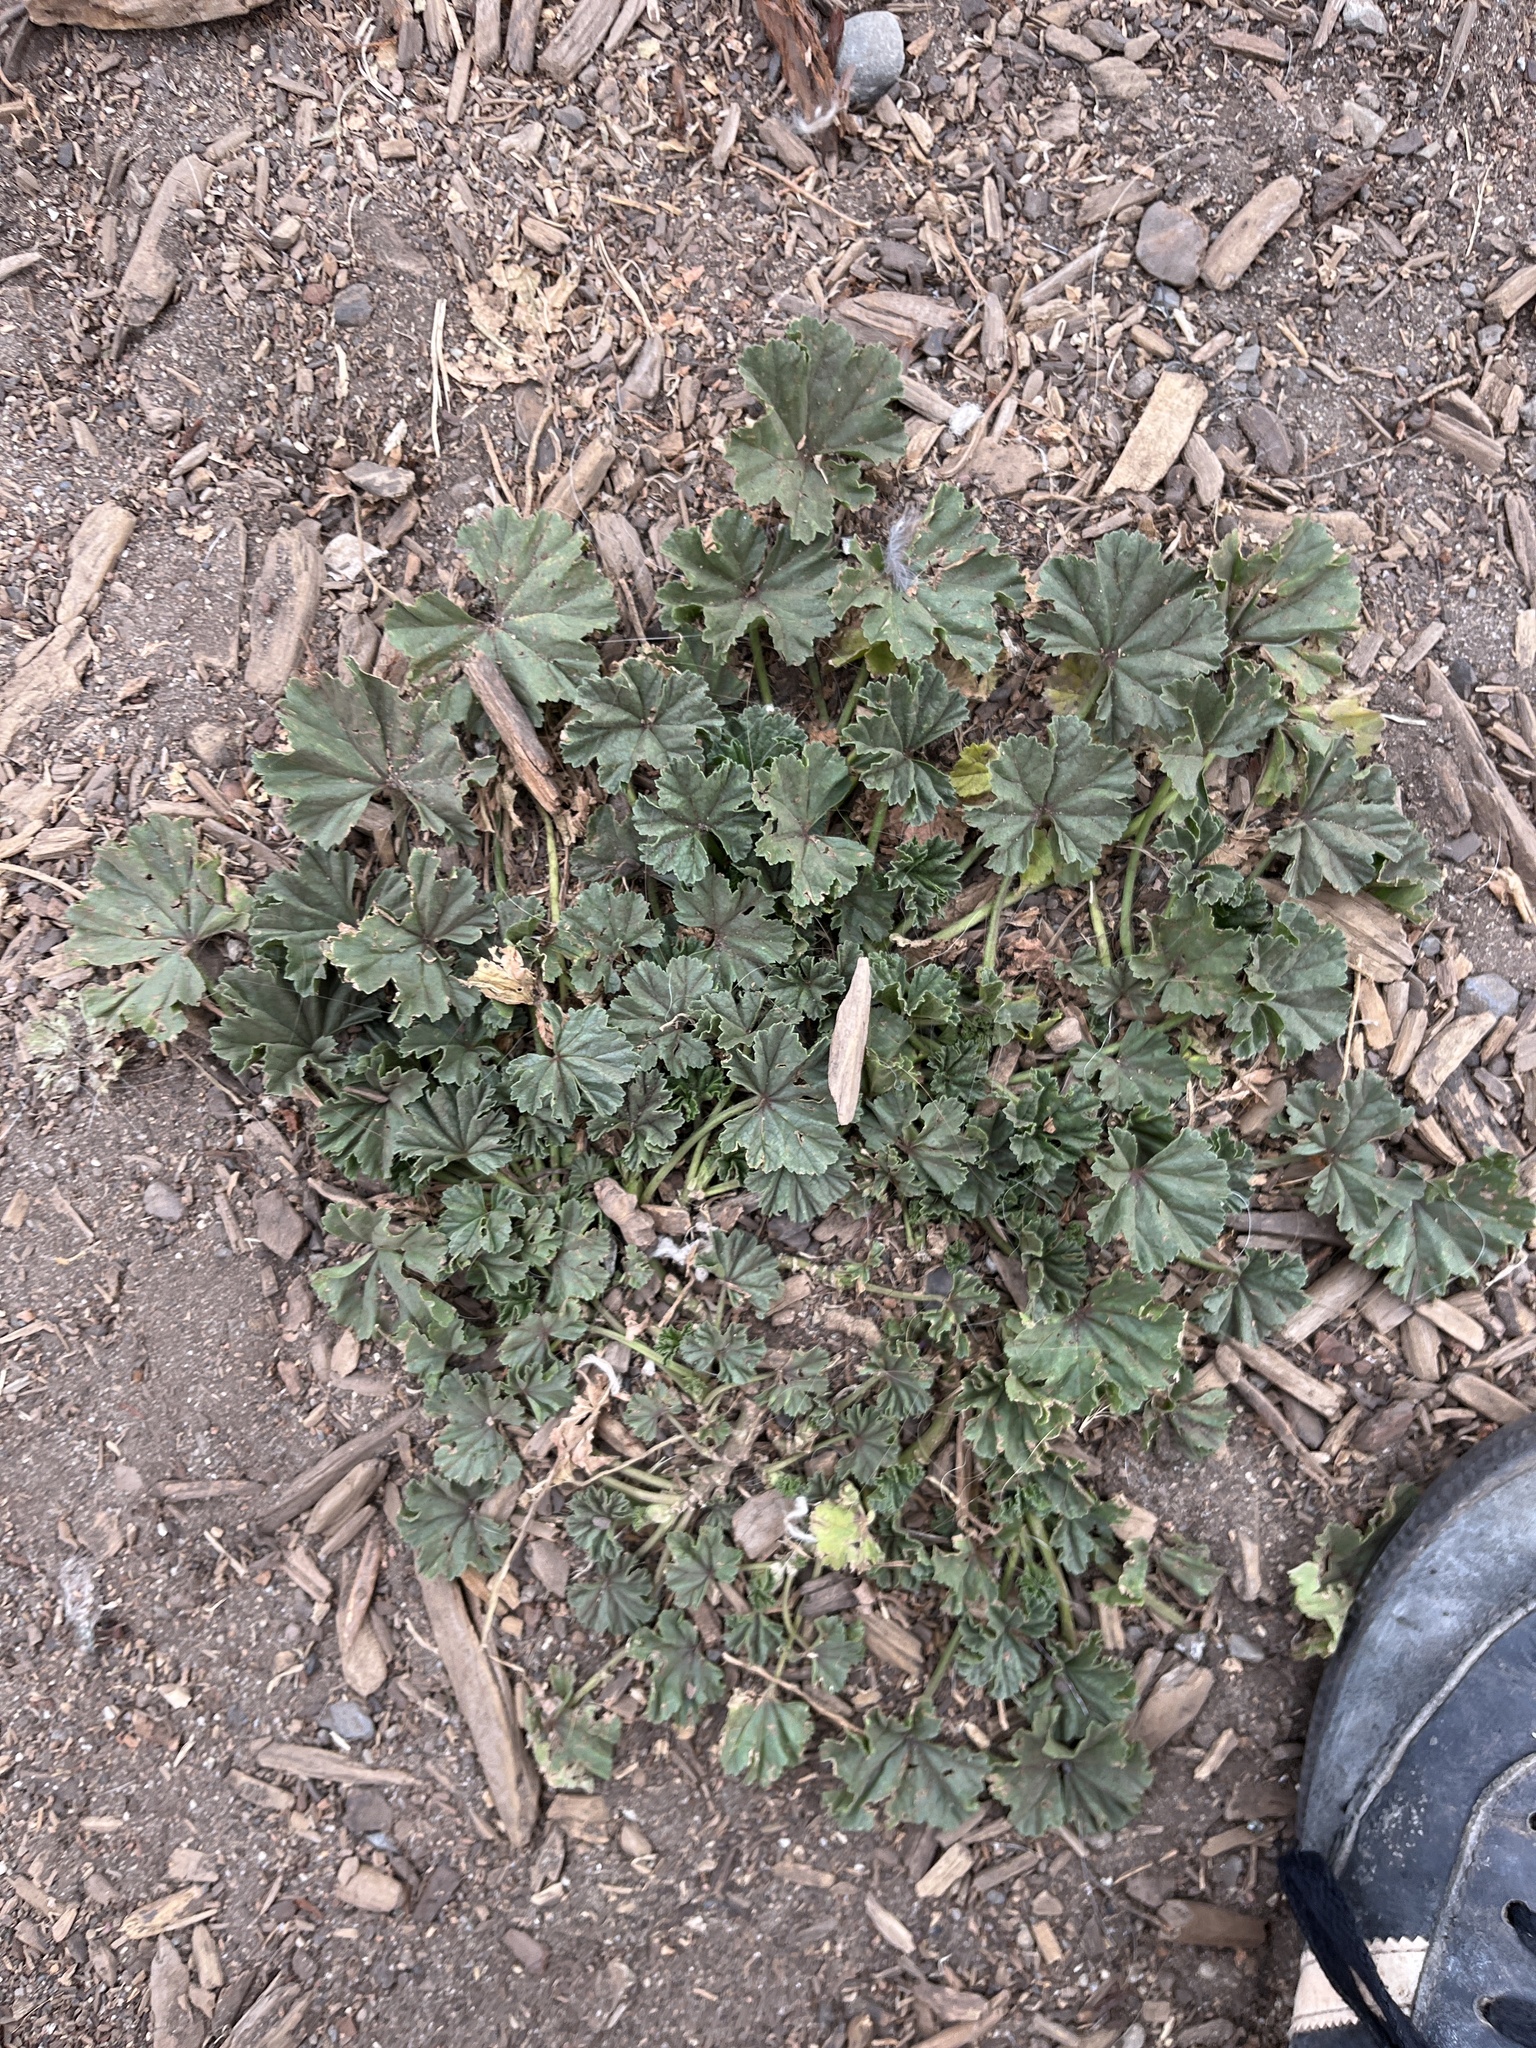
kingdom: Plantae
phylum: Tracheophyta
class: Magnoliopsida
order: Malvales
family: Malvaceae
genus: Malva
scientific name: Malva
